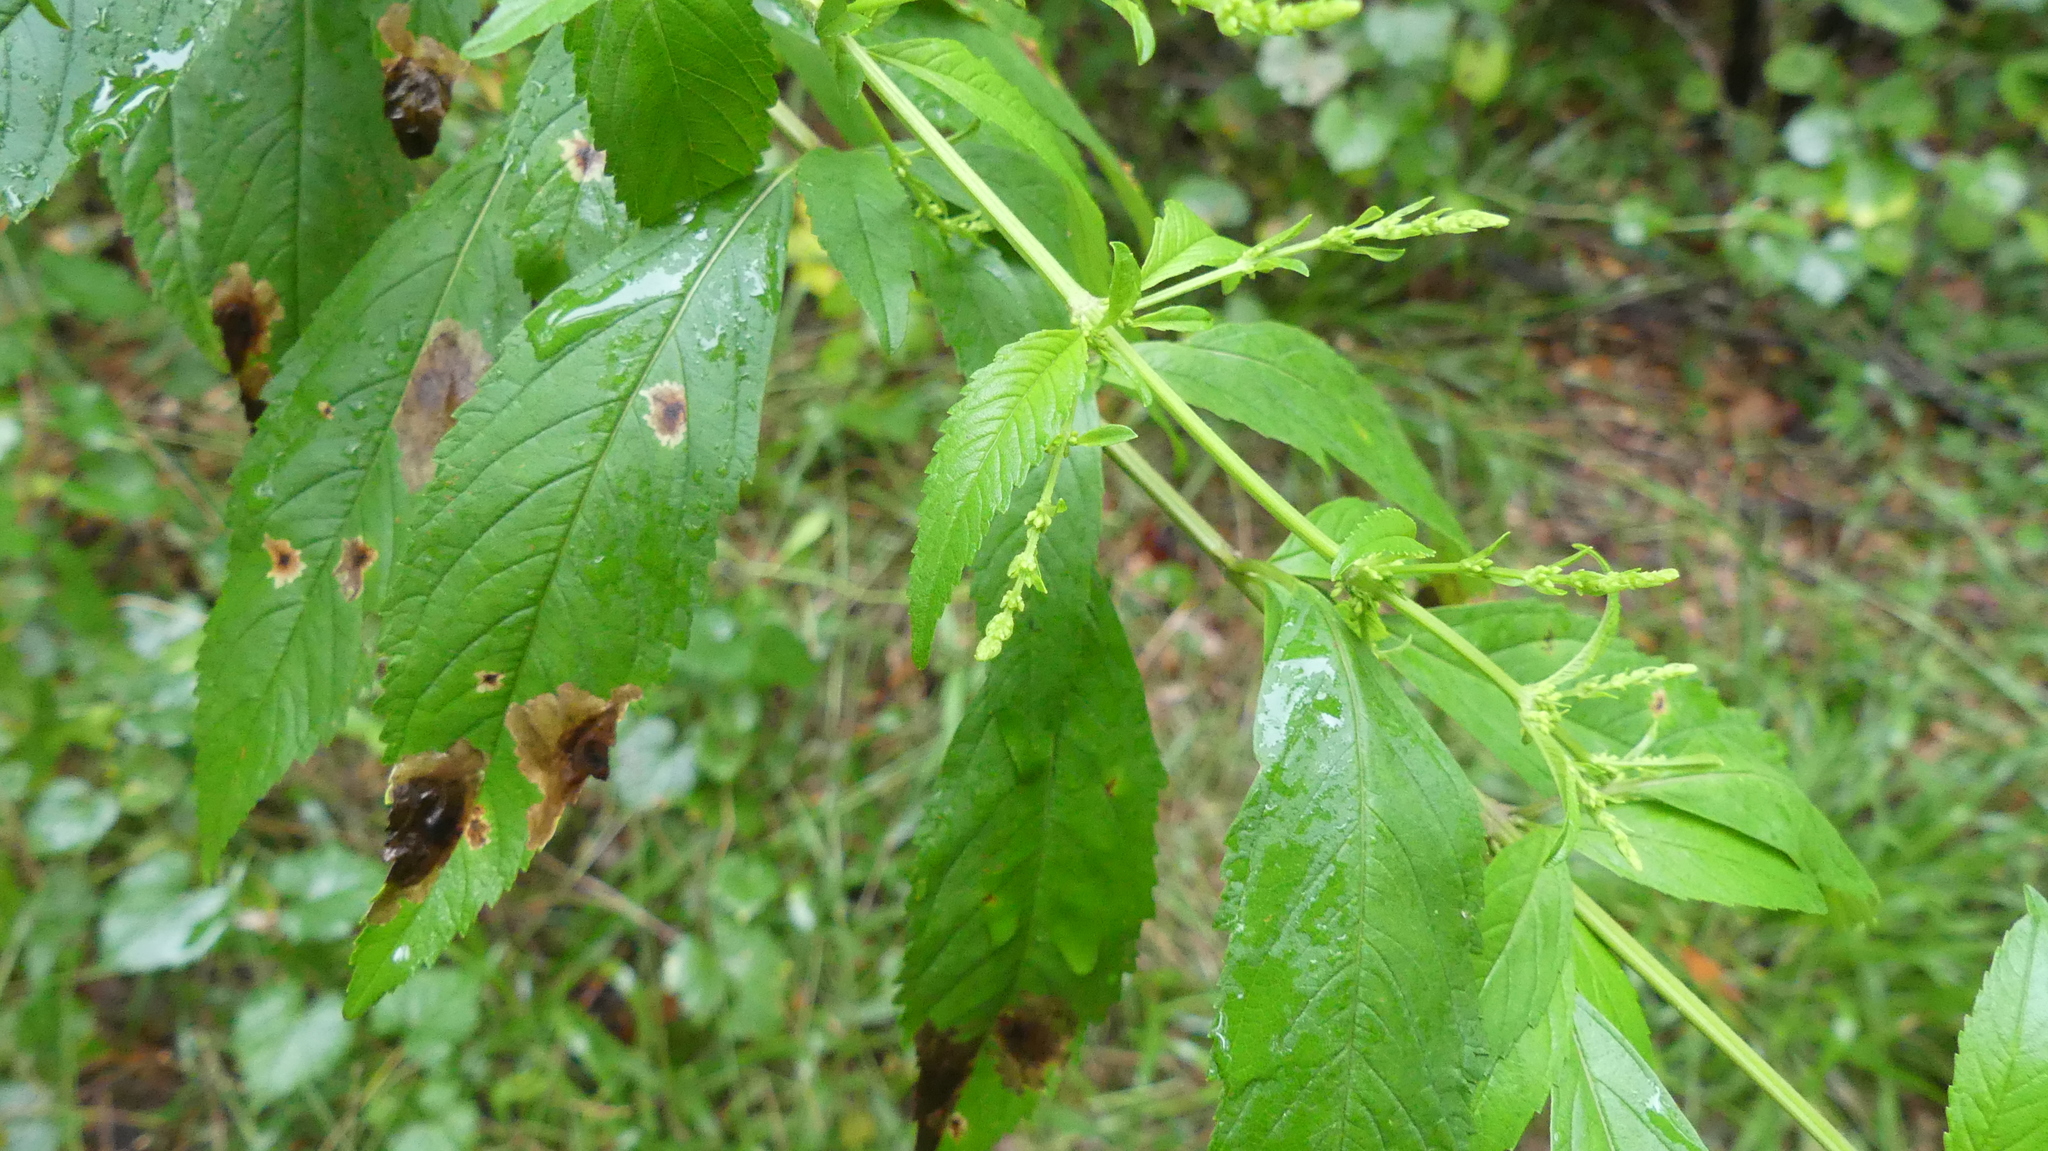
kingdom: Plantae
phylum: Tracheophyta
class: Magnoliopsida
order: Lamiales
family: Lamiaceae
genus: Condea
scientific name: Condea verticillata
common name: John charles
